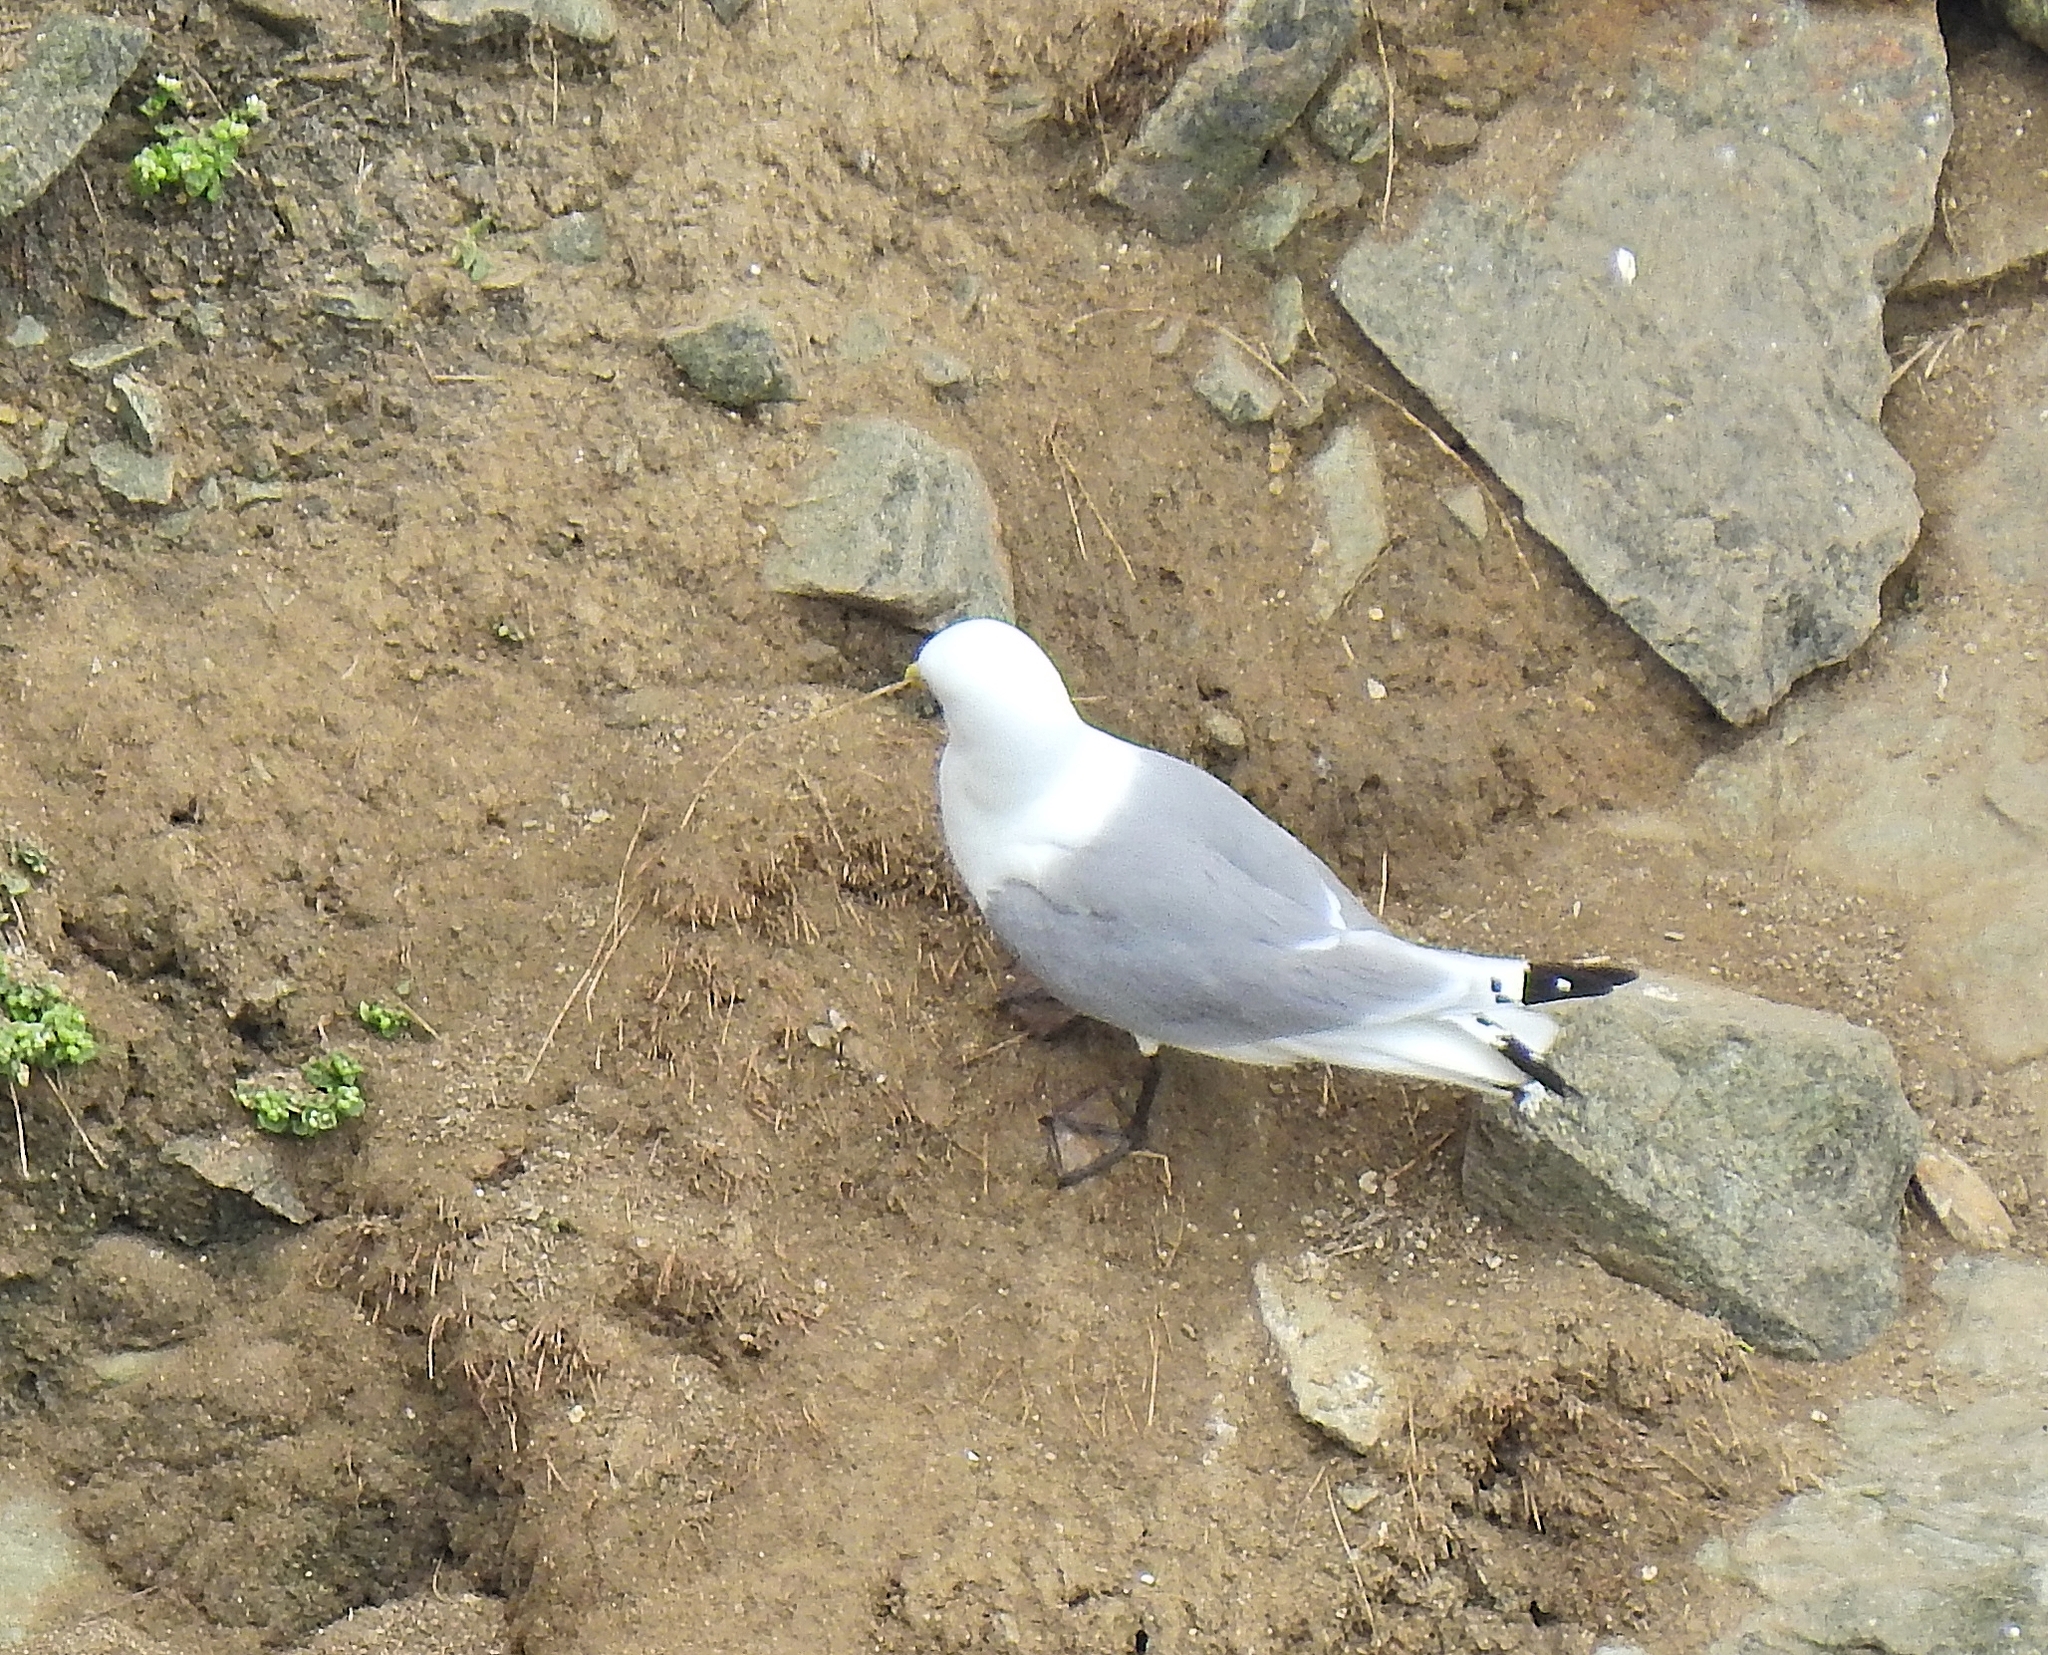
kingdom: Animalia
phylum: Chordata
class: Aves
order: Charadriiformes
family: Laridae
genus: Rissa
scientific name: Rissa tridactyla
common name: Black-legged kittiwake
